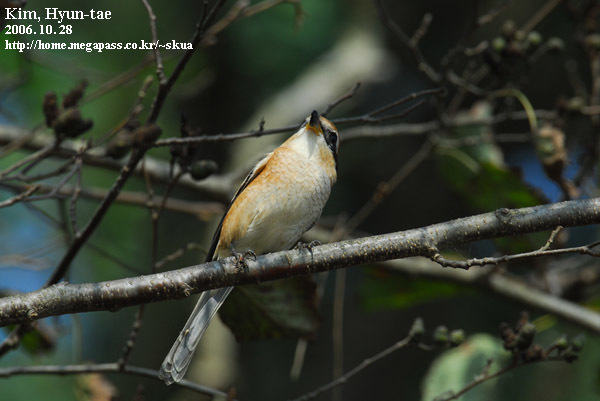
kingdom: Animalia
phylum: Chordata
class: Aves
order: Passeriformes
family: Laniidae
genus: Lanius
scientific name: Lanius bucephalus
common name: Bull-headed shrike
